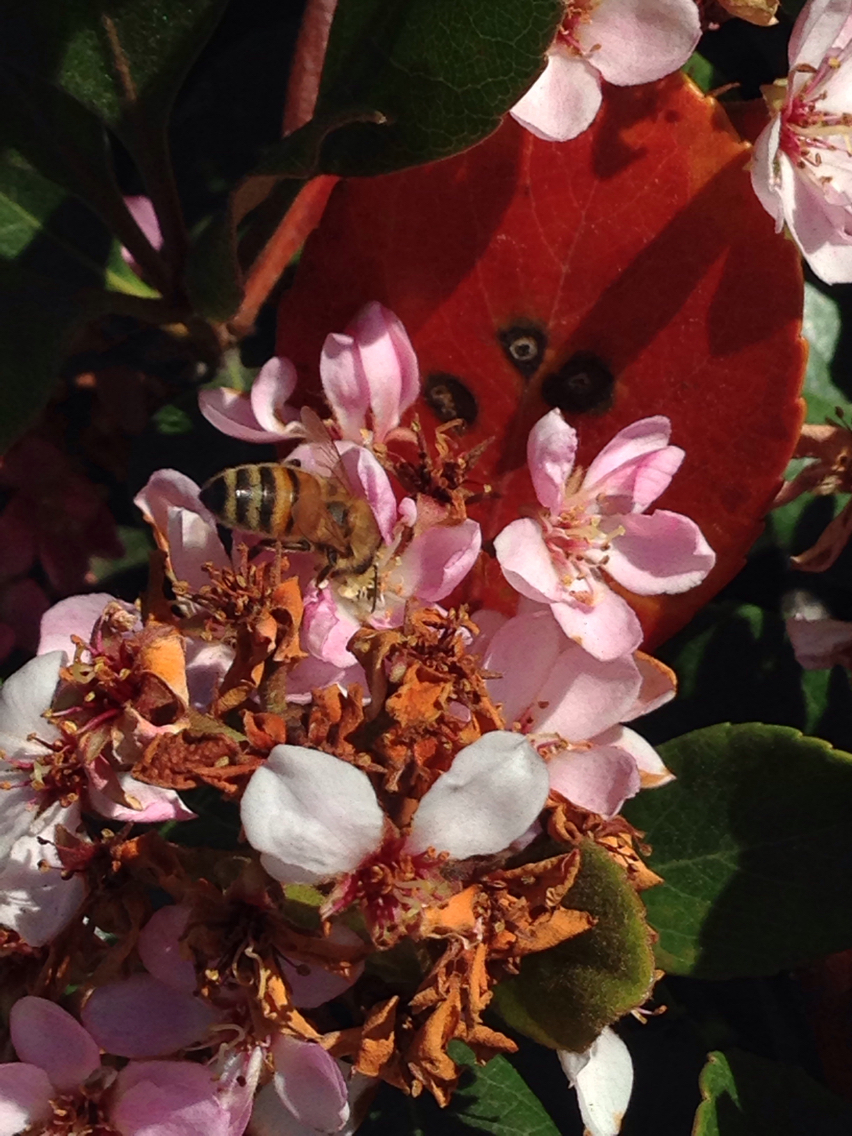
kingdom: Animalia
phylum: Arthropoda
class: Insecta
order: Hymenoptera
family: Apidae
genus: Apis
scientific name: Apis mellifera
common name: Honey bee
